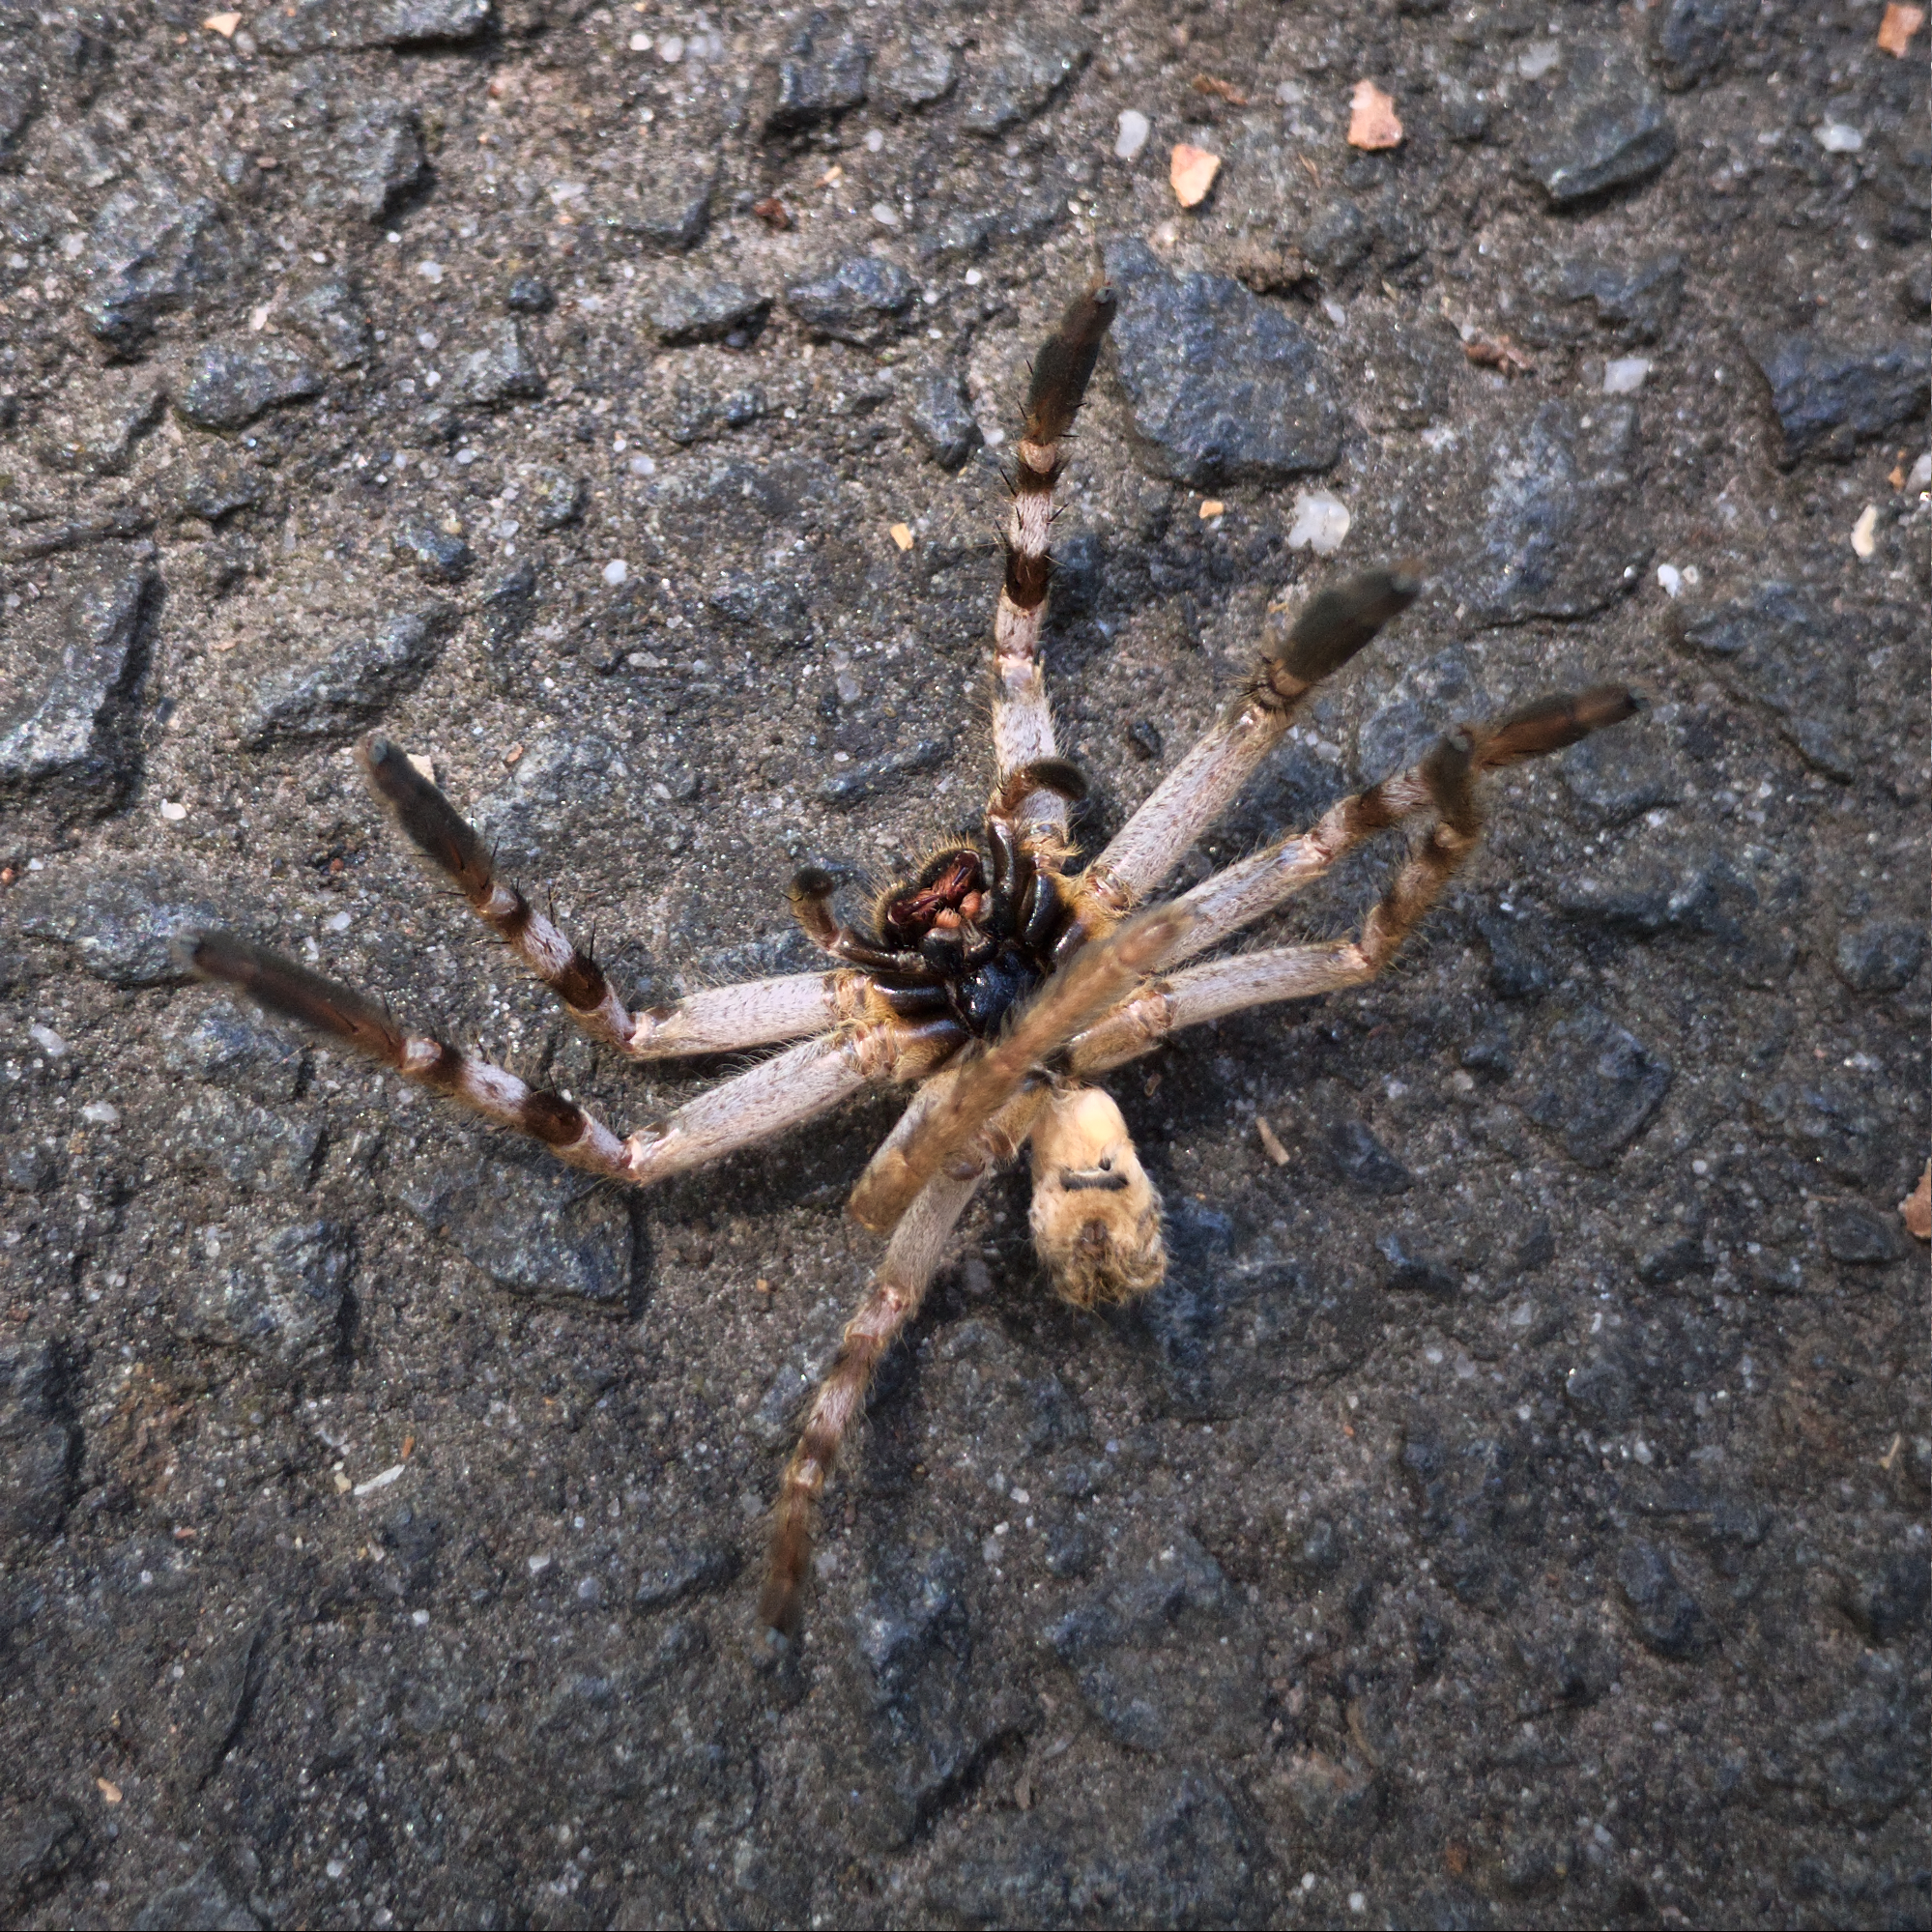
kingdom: Animalia
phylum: Arthropoda
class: Arachnida
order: Araneae
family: Sparassidae
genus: Isopedella
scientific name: Isopedella victorialis
